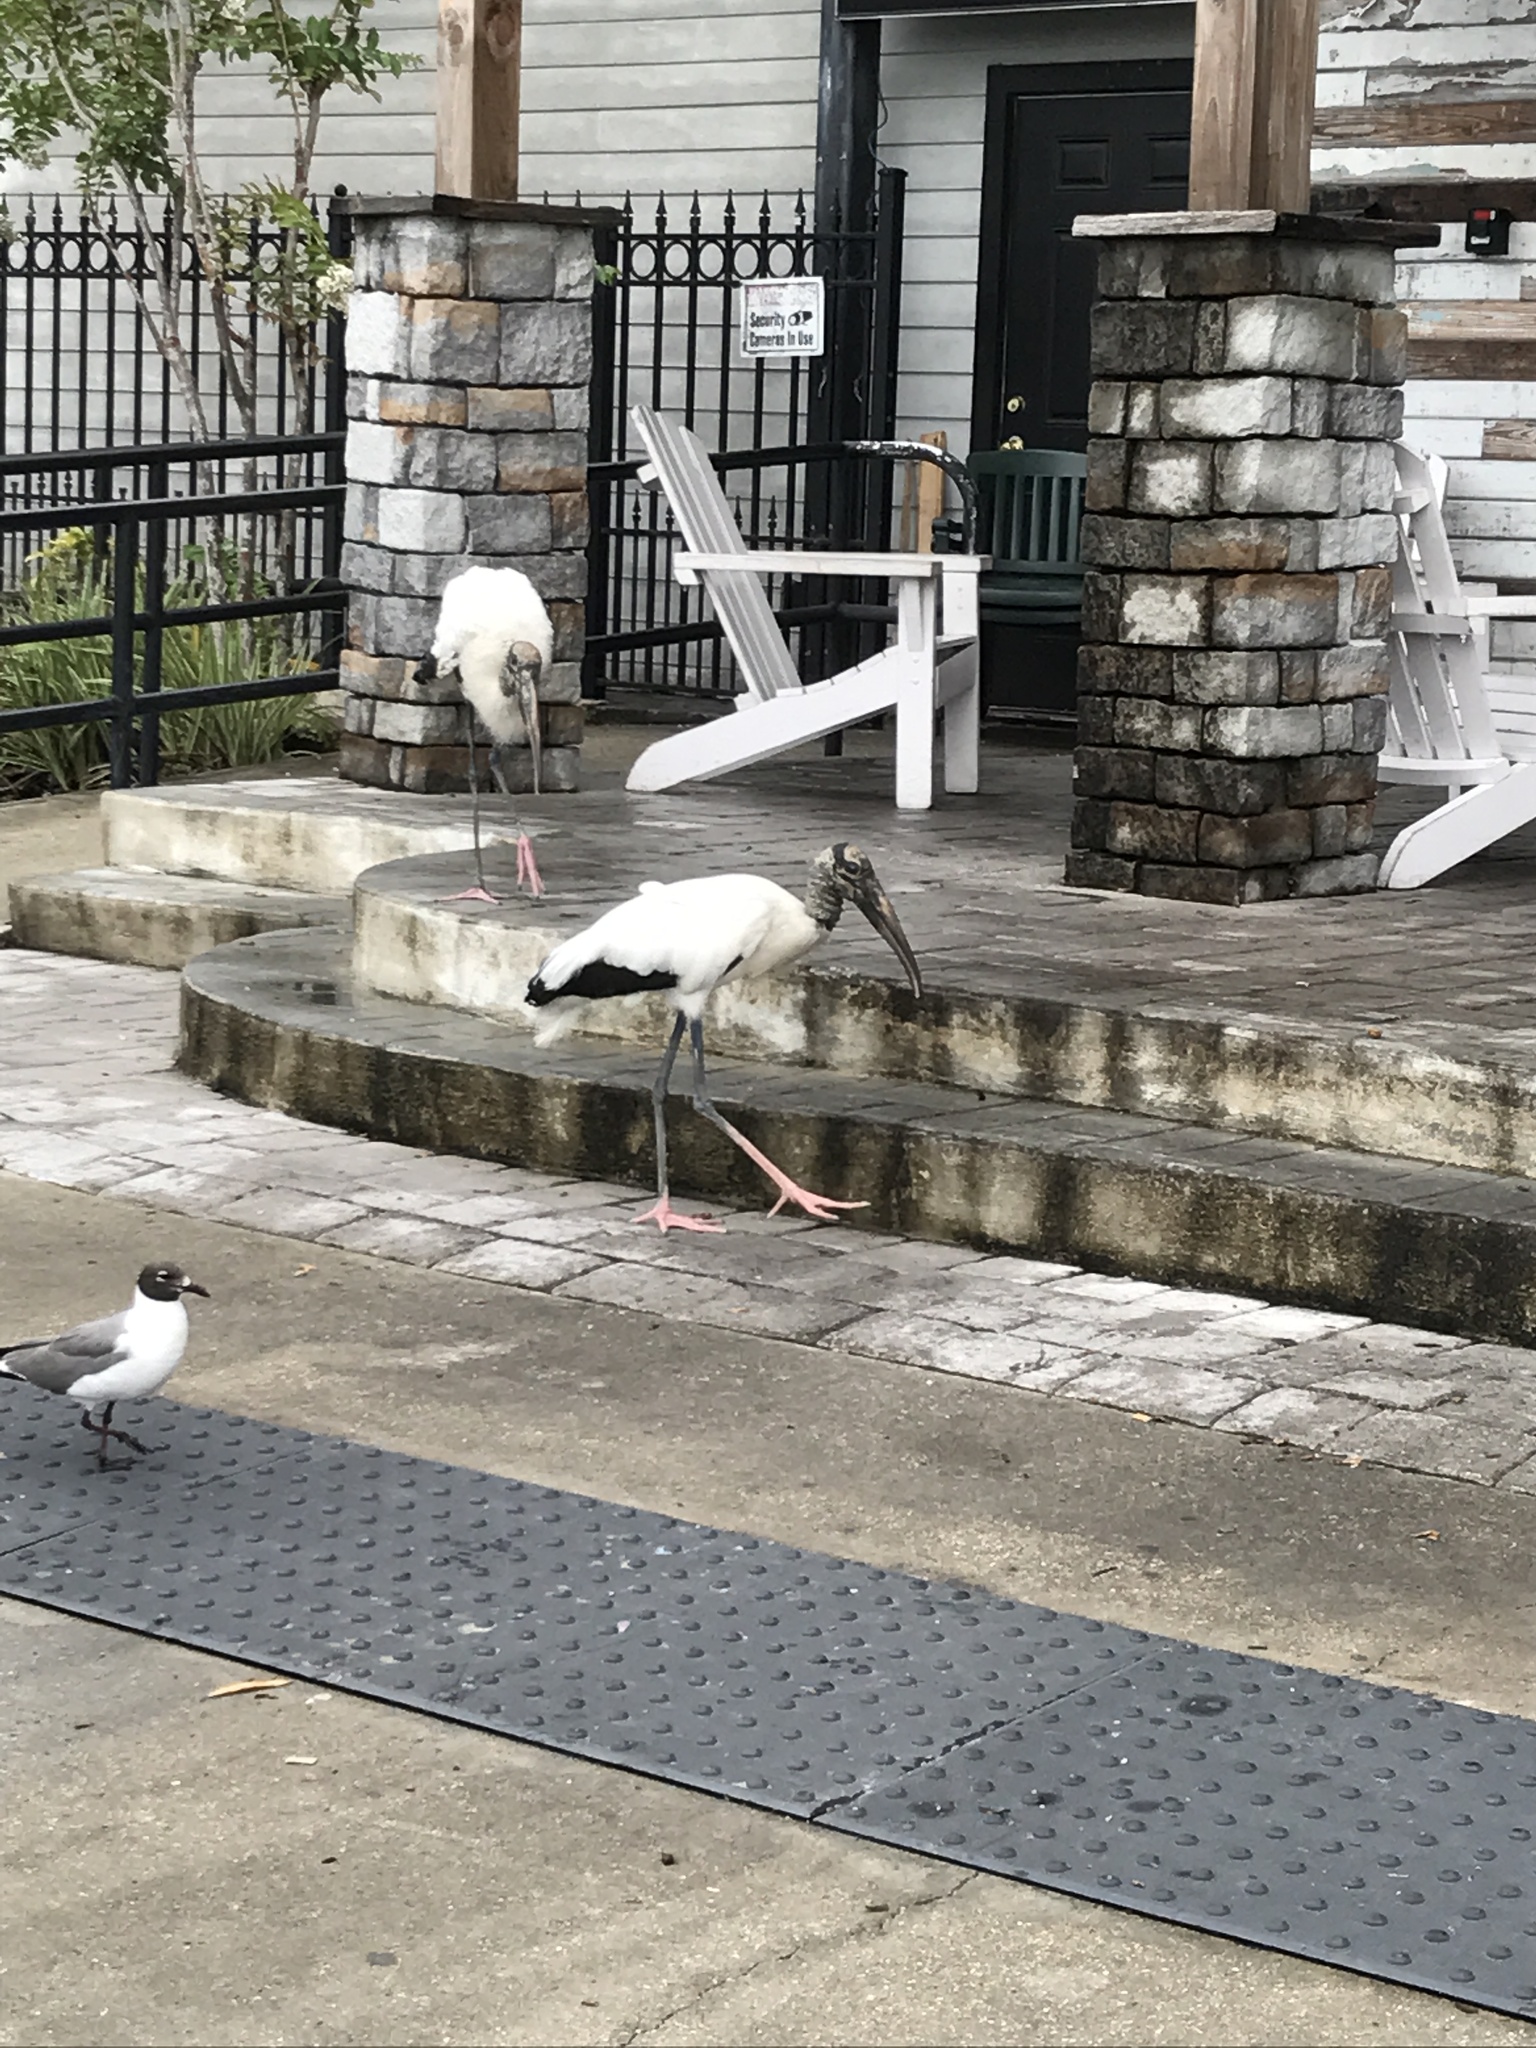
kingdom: Animalia
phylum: Chordata
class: Aves
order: Ciconiiformes
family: Ciconiidae
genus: Mycteria
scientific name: Mycteria americana
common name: Wood stork
